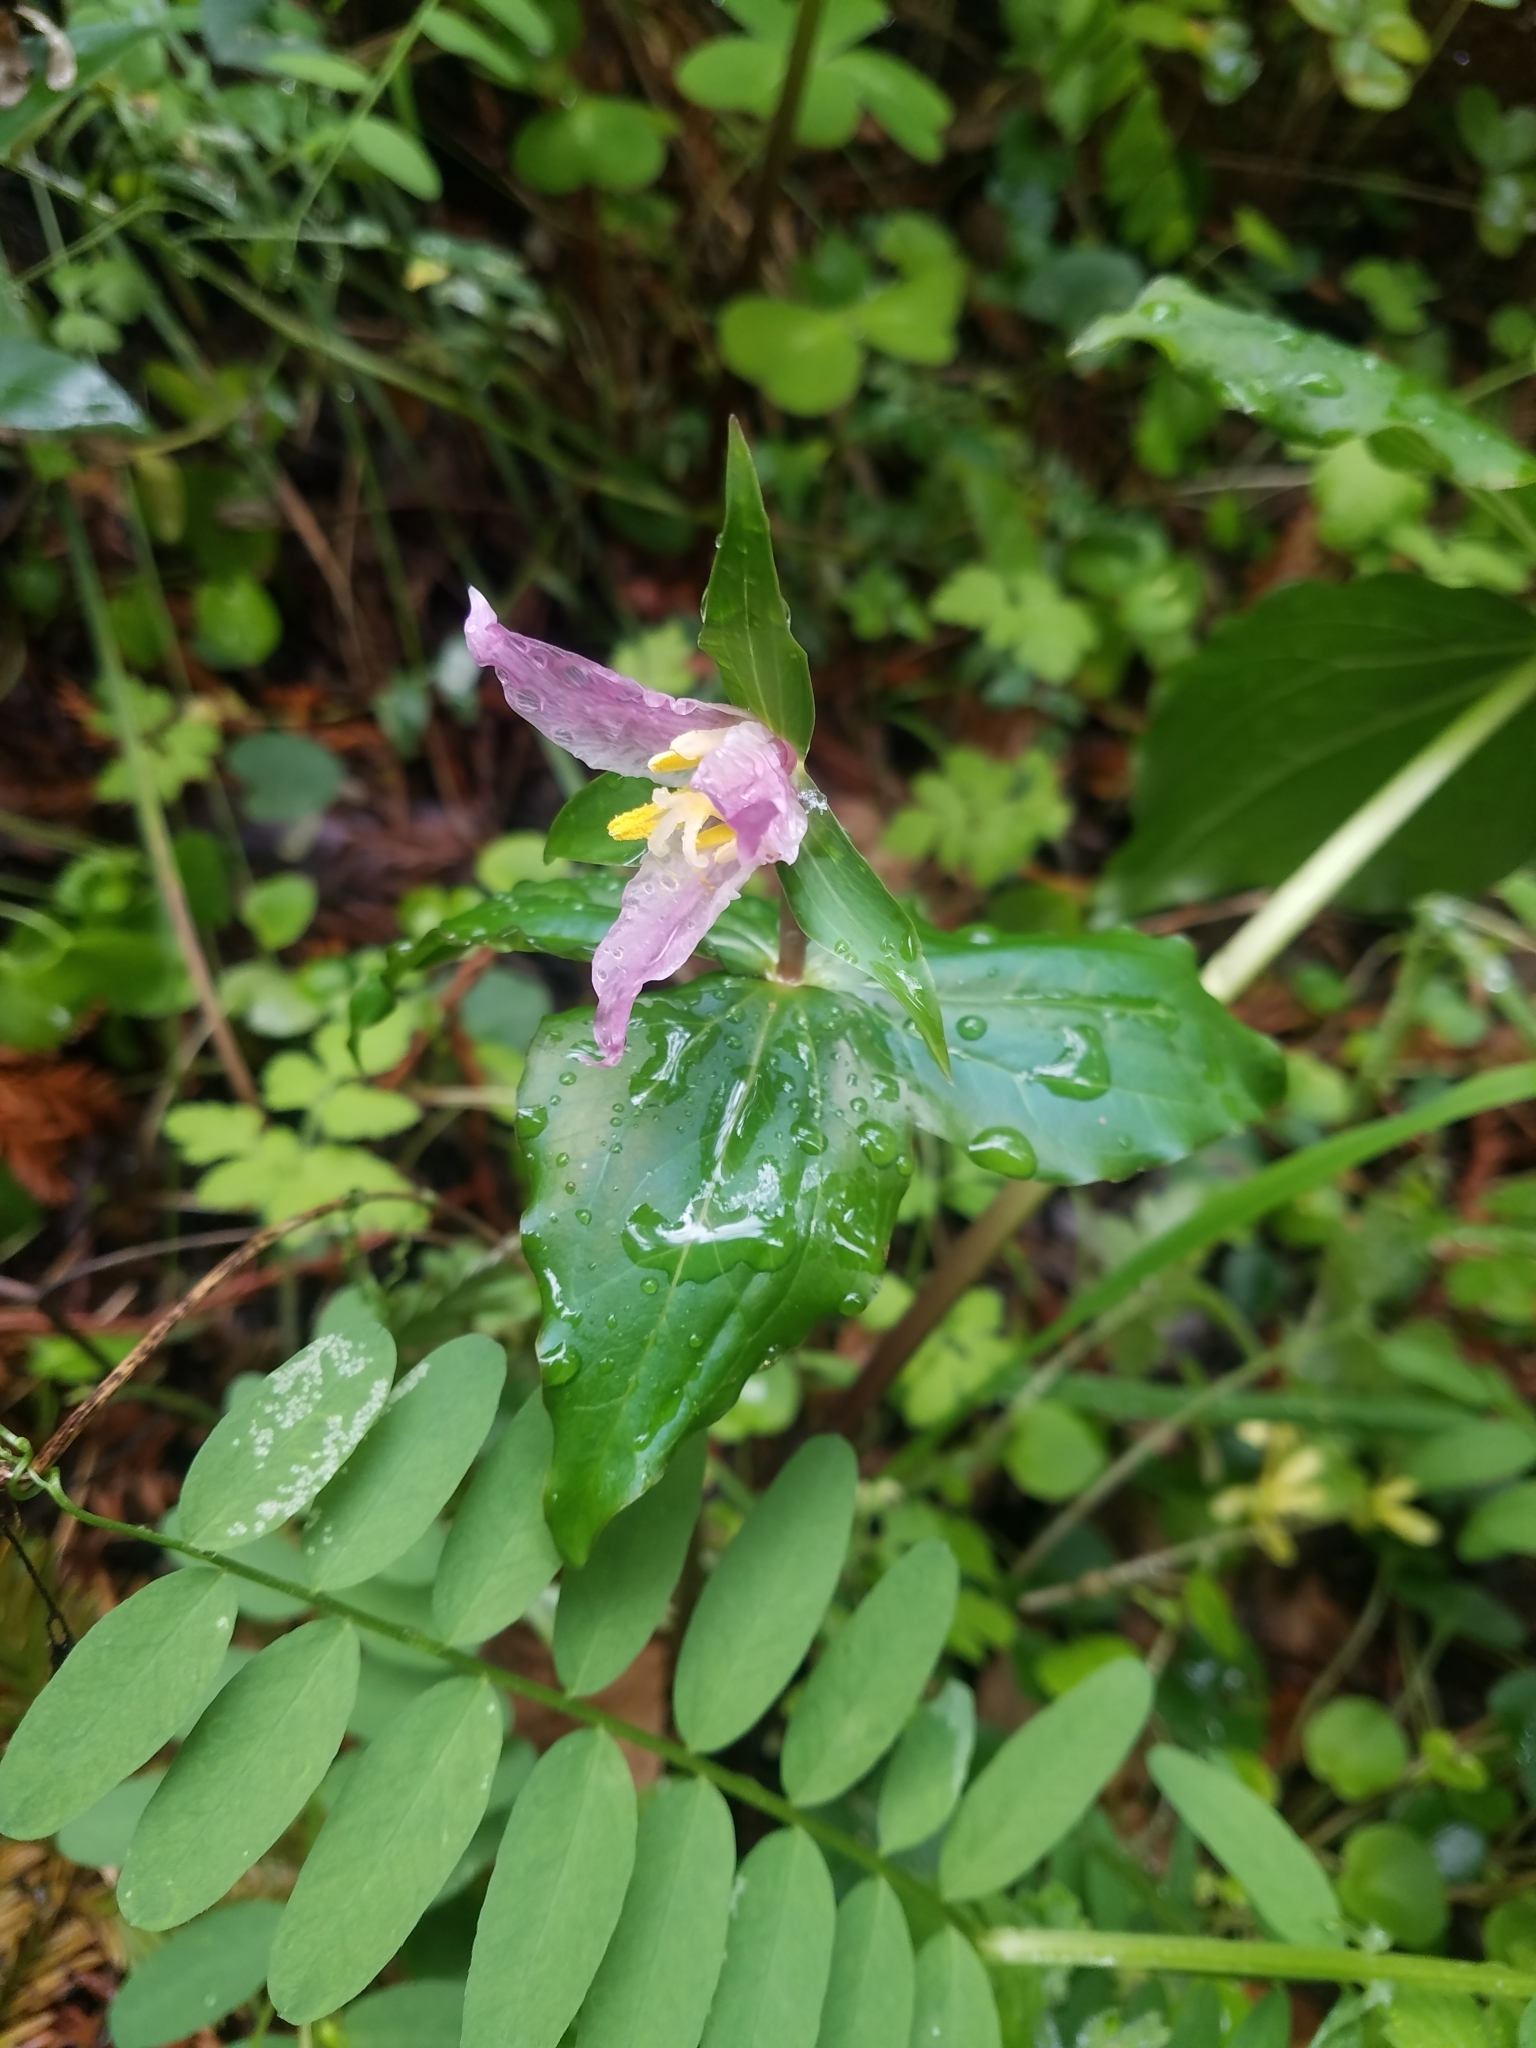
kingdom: Plantae
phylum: Tracheophyta
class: Liliopsida
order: Liliales
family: Melanthiaceae
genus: Trillium
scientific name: Trillium ovatum
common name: Pacific trillium
